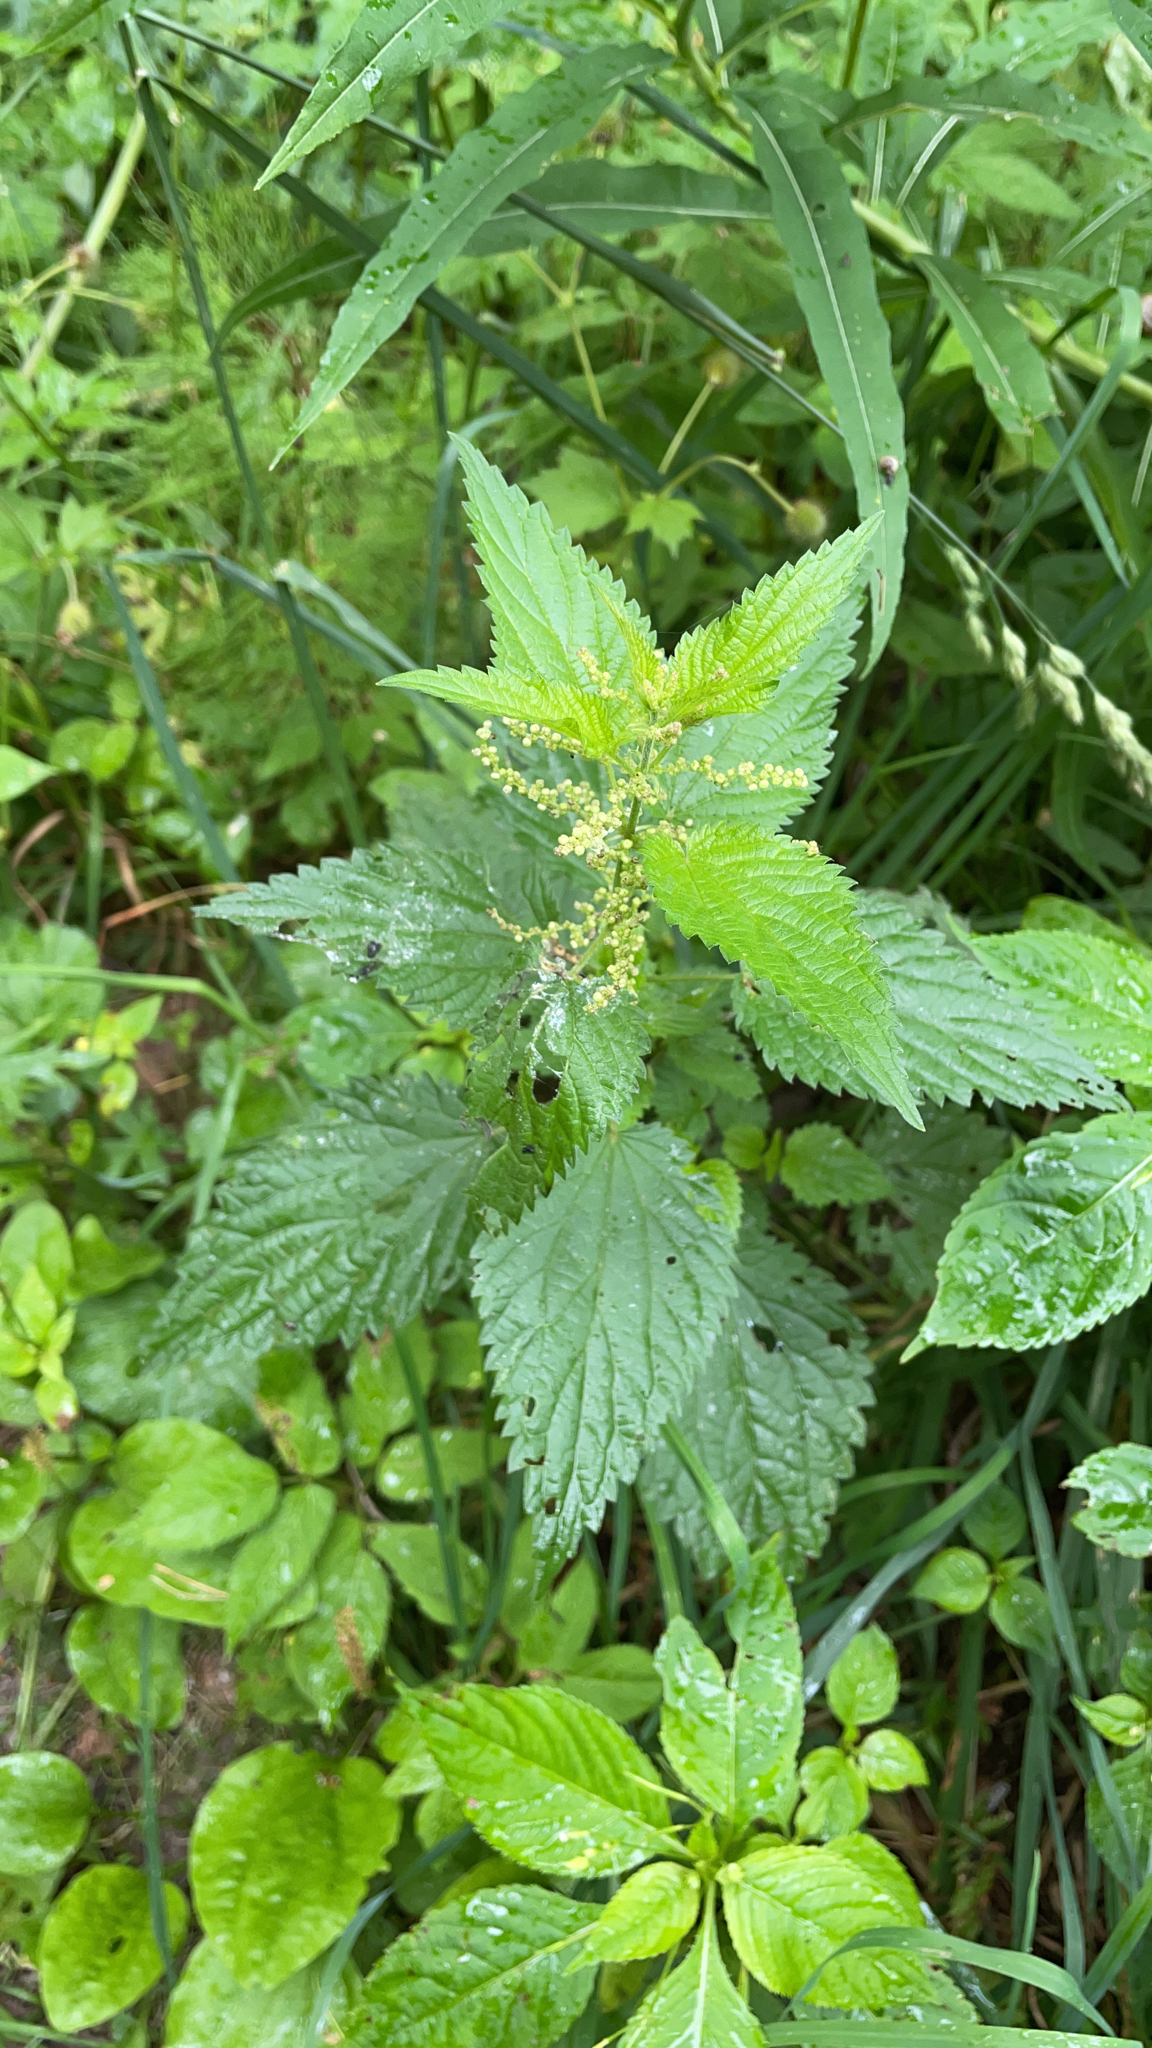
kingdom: Plantae
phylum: Tracheophyta
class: Magnoliopsida
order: Rosales
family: Urticaceae
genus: Urtica
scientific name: Urtica dioica
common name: Common nettle
